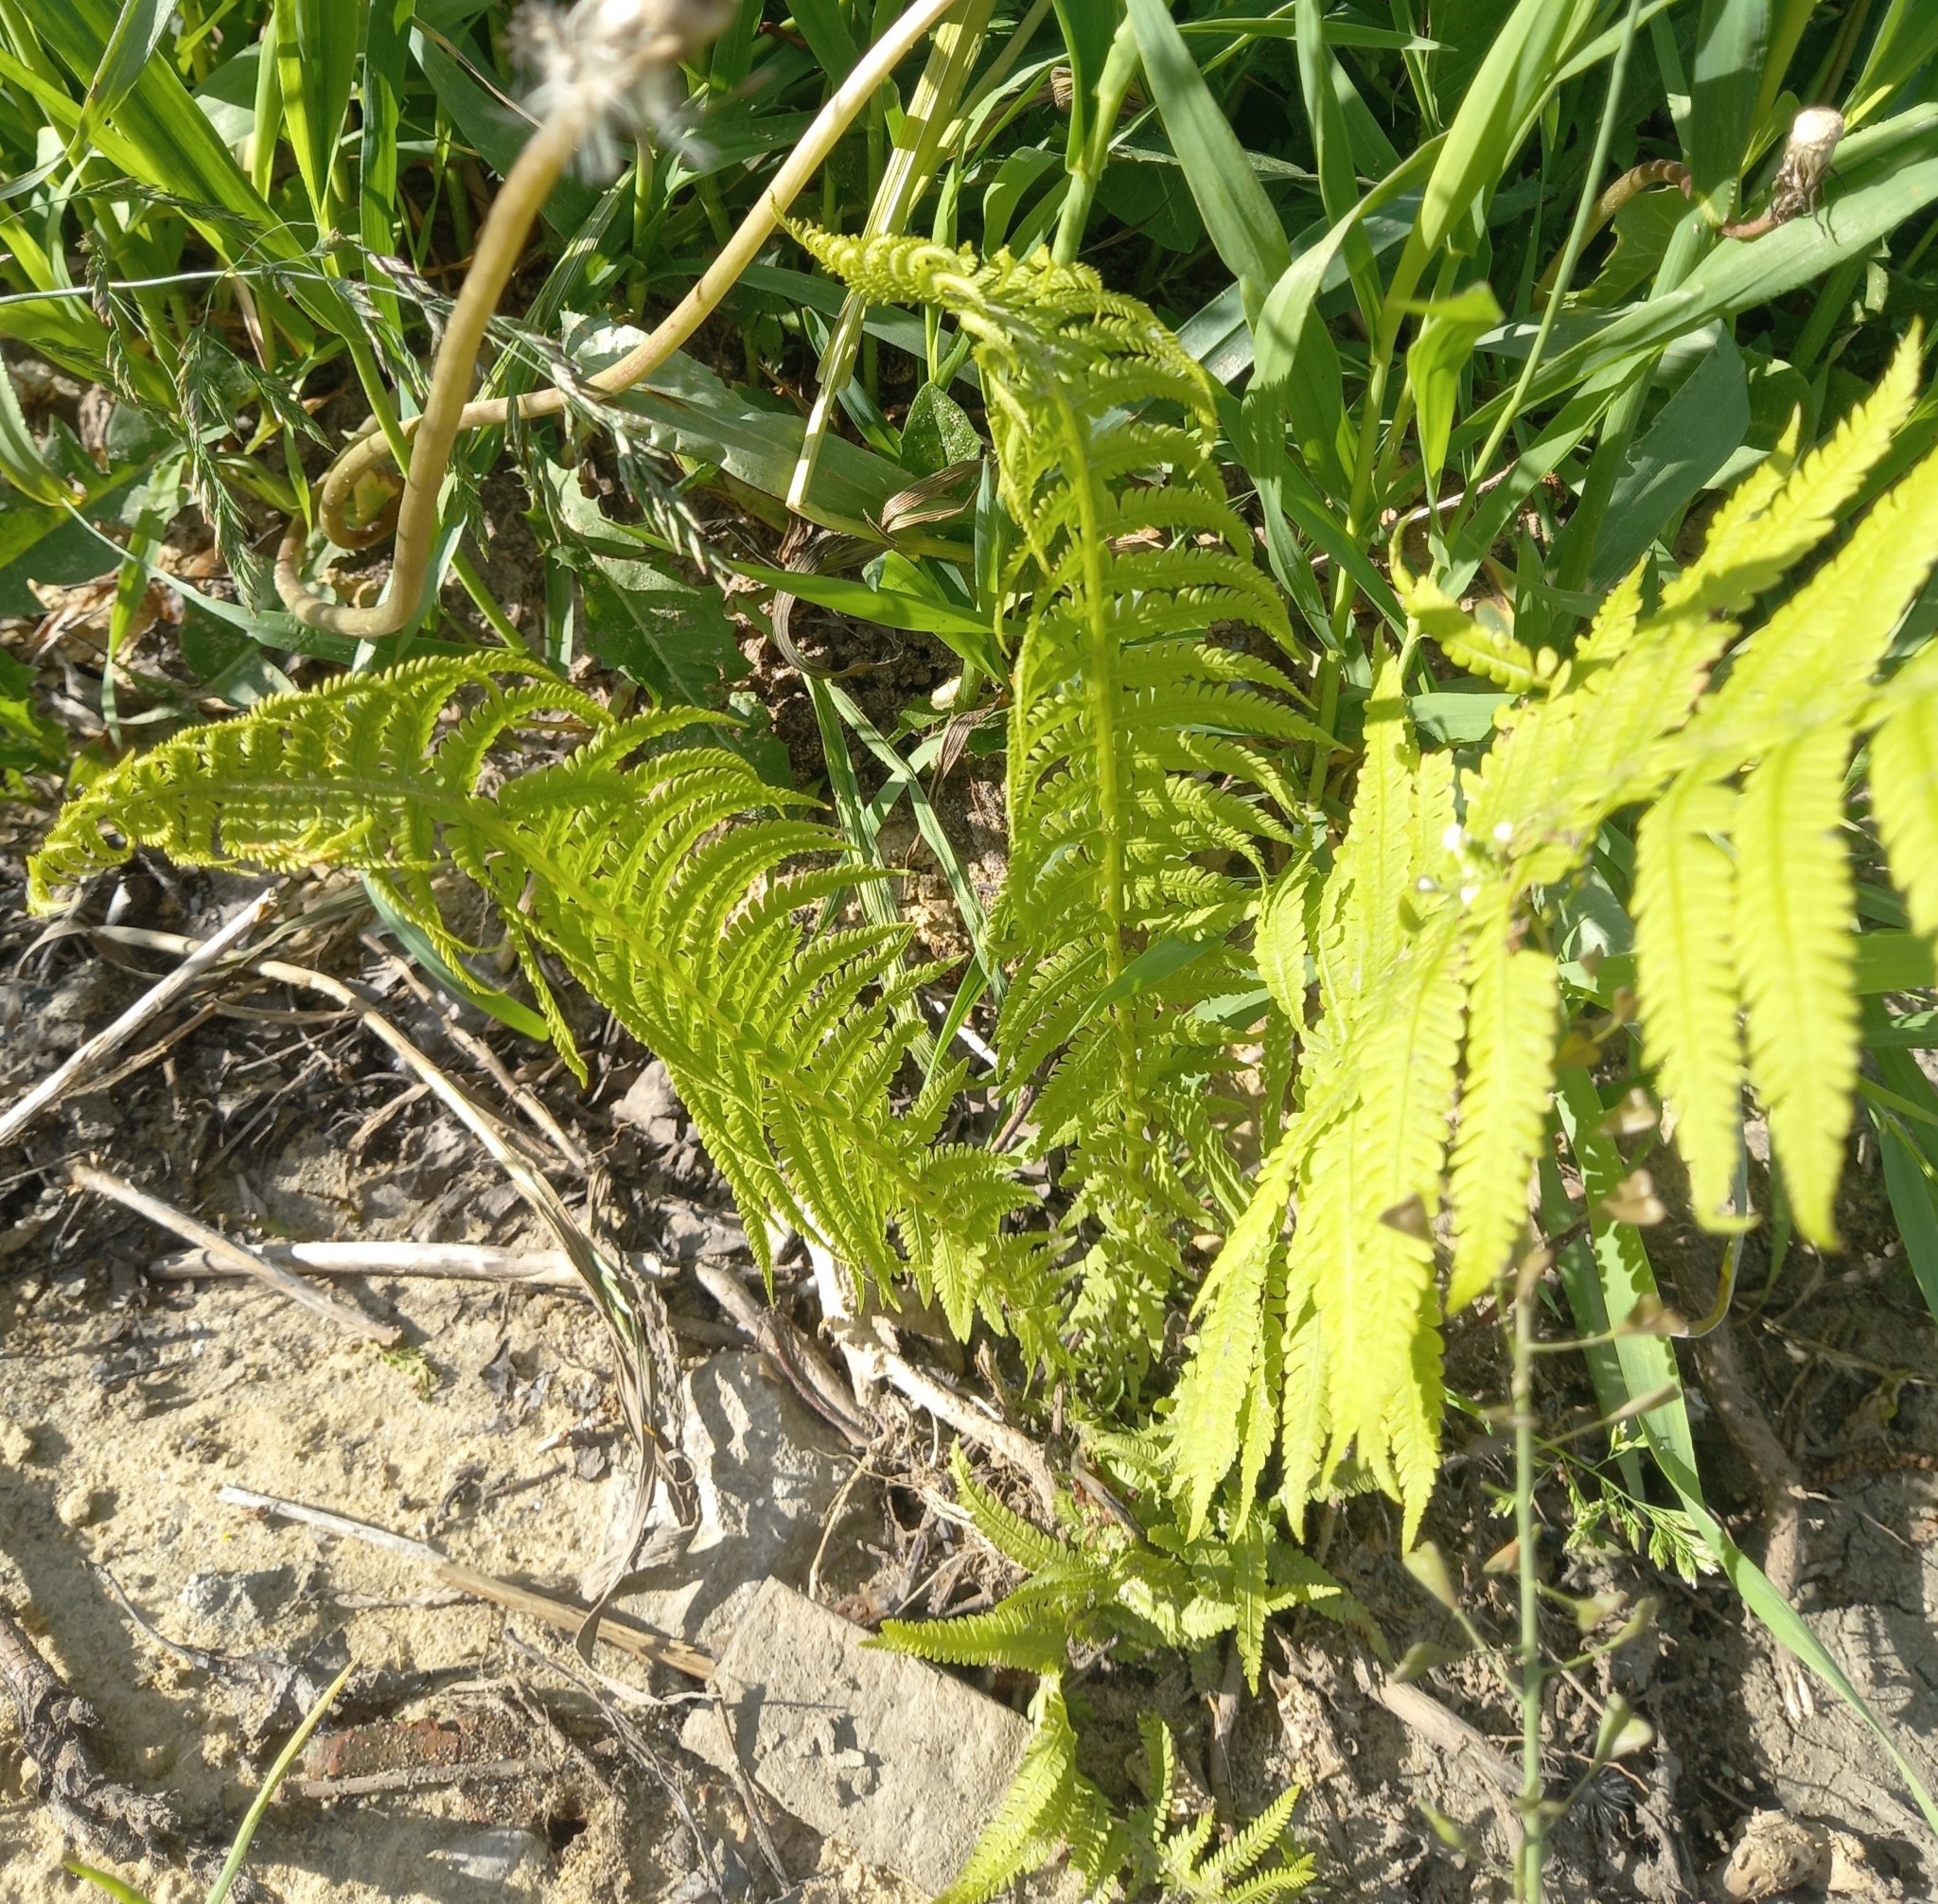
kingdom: Plantae
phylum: Tracheophyta
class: Polypodiopsida
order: Polypodiales
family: Onocleaceae
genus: Matteuccia
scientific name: Matteuccia struthiopteris
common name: Ostrich fern
